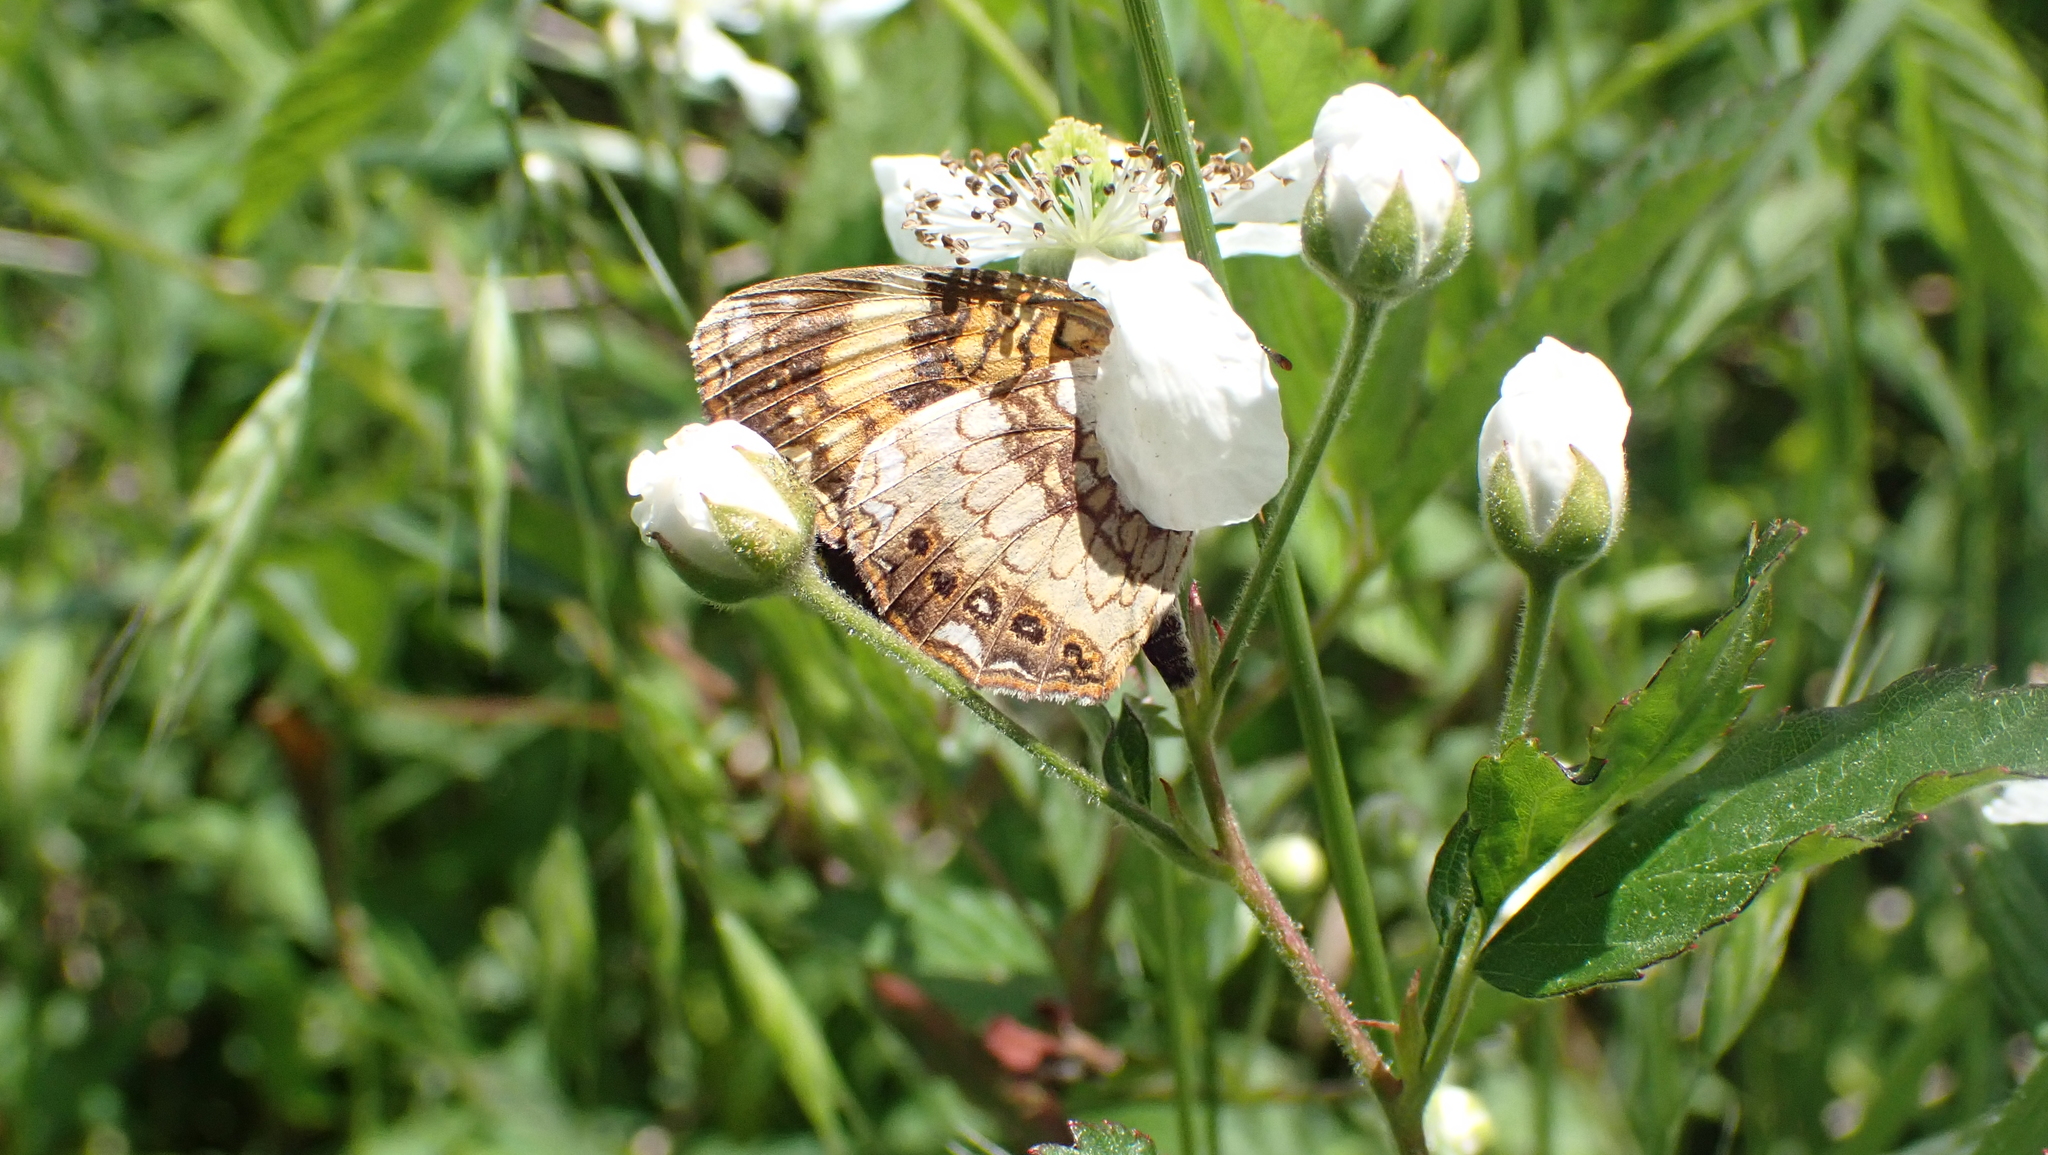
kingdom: Animalia
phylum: Arthropoda
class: Insecta
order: Lepidoptera
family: Nymphalidae
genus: Chlosyne
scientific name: Chlosyne nycteis
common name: Silvery checkerspot
